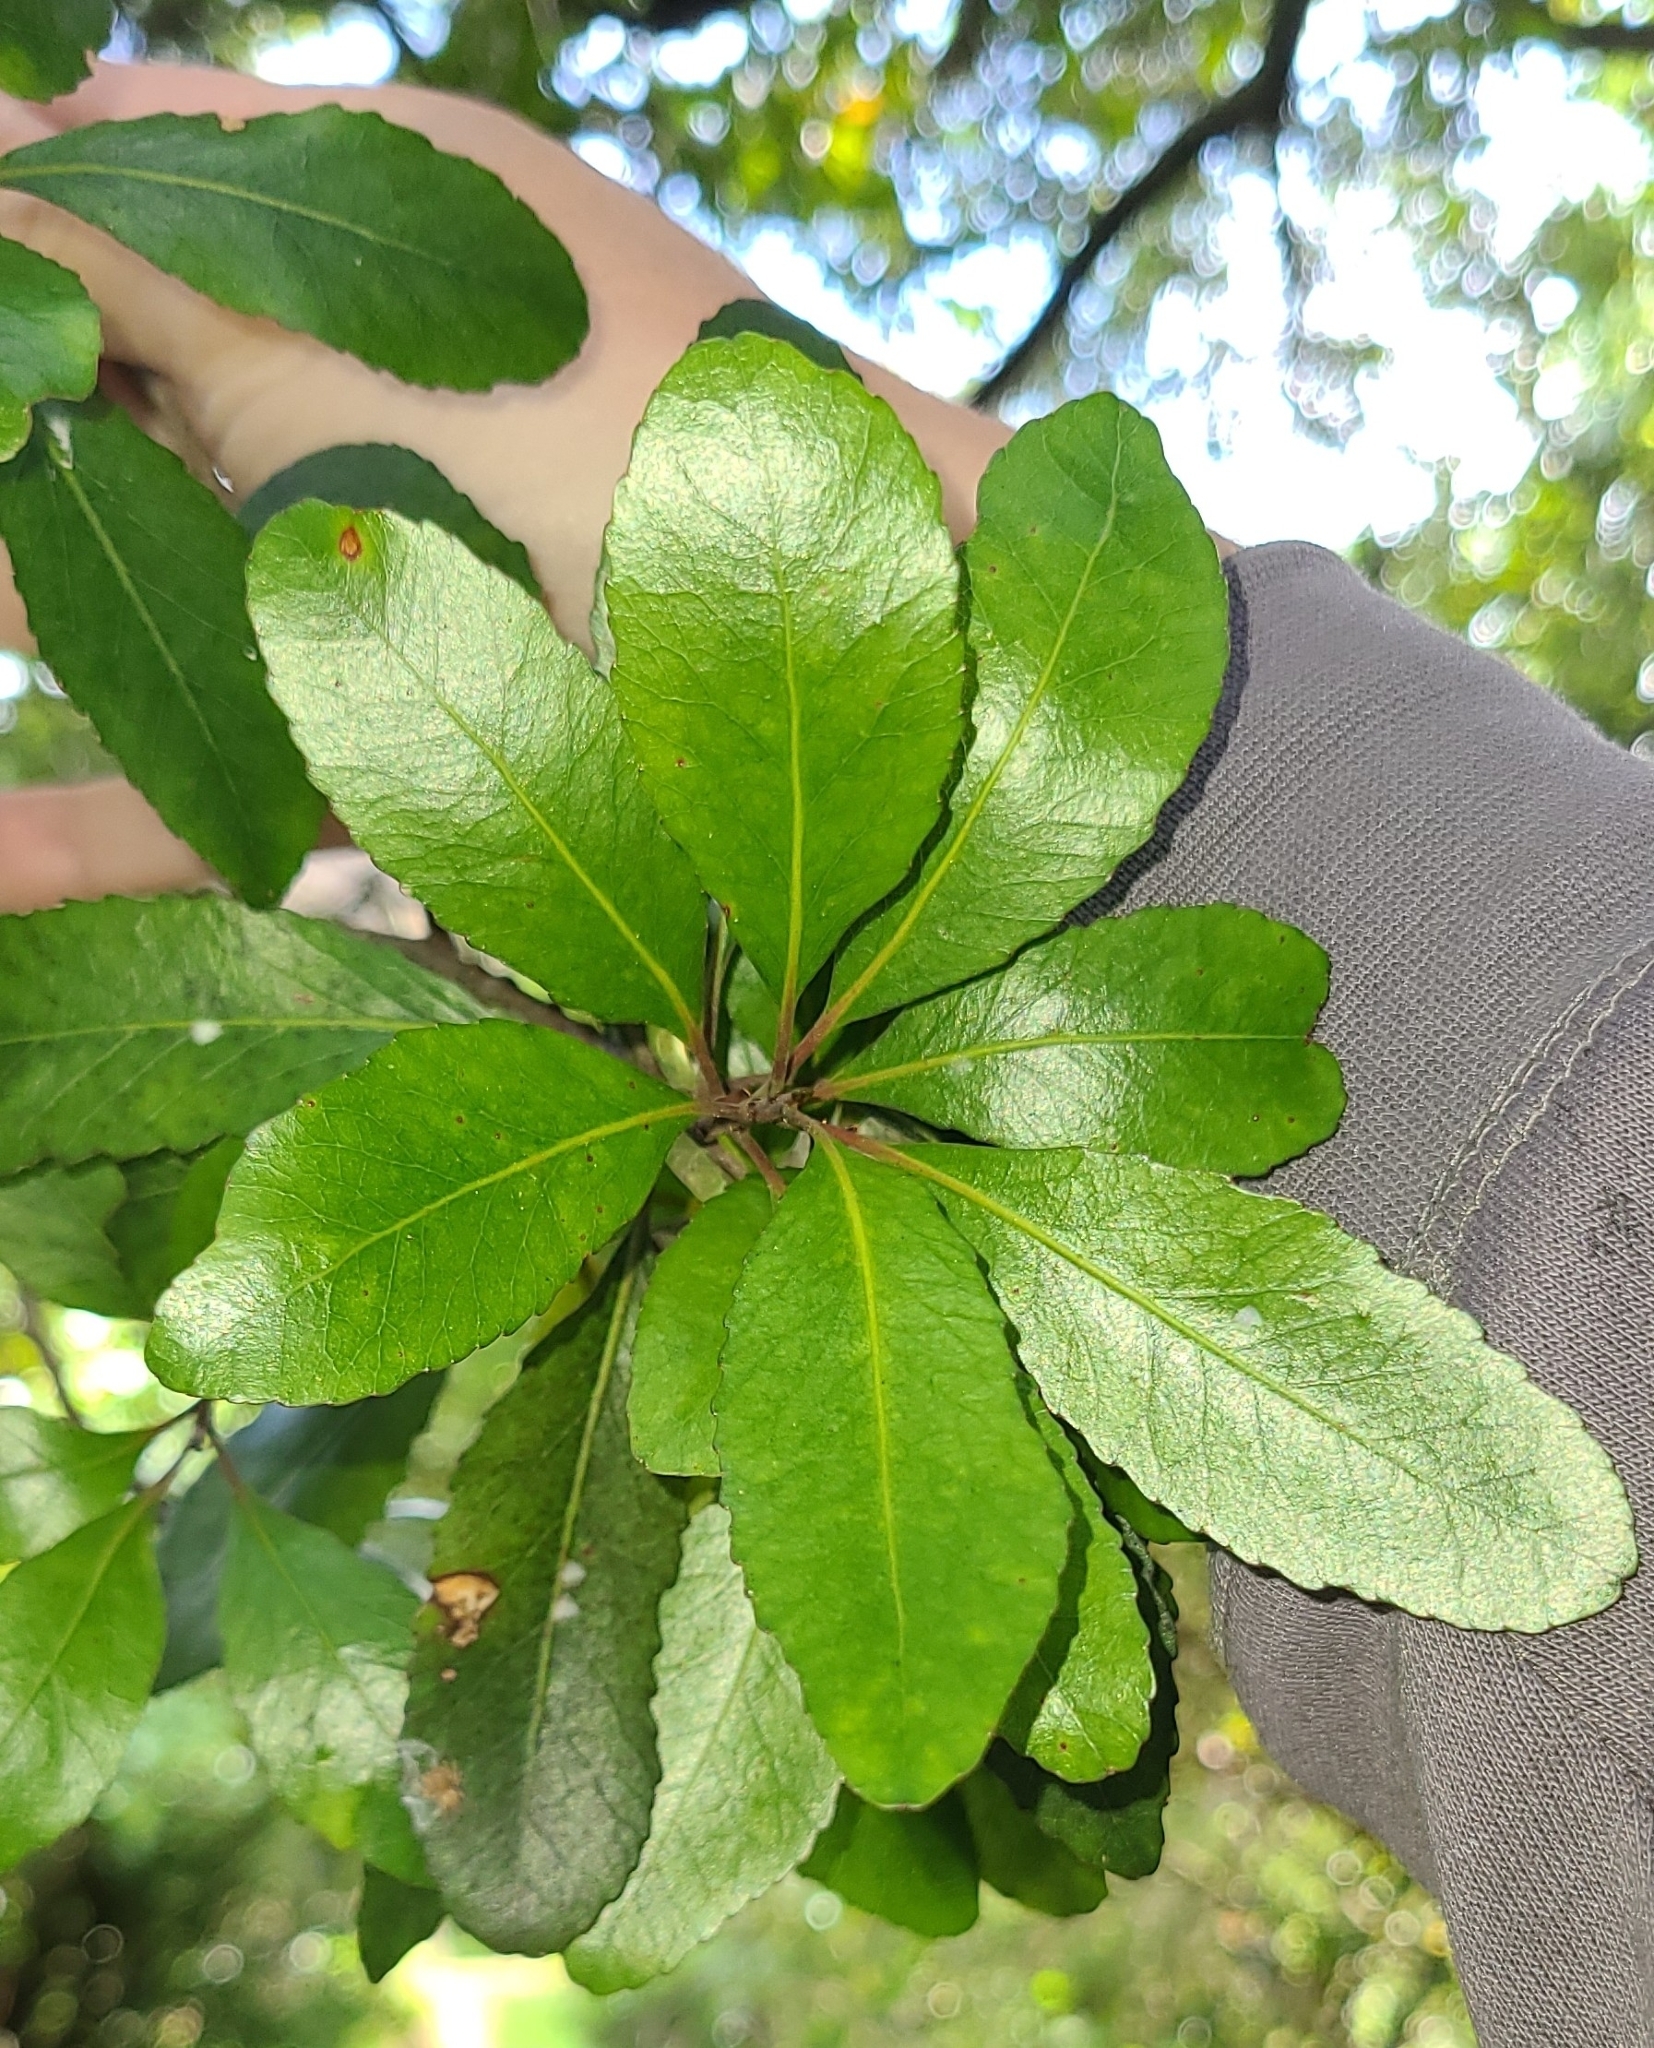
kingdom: Plantae
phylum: Tracheophyta
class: Magnoliopsida
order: Oxalidales
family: Elaeocarpaceae
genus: Elaeocarpus
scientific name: Elaeocarpus hookerianus
